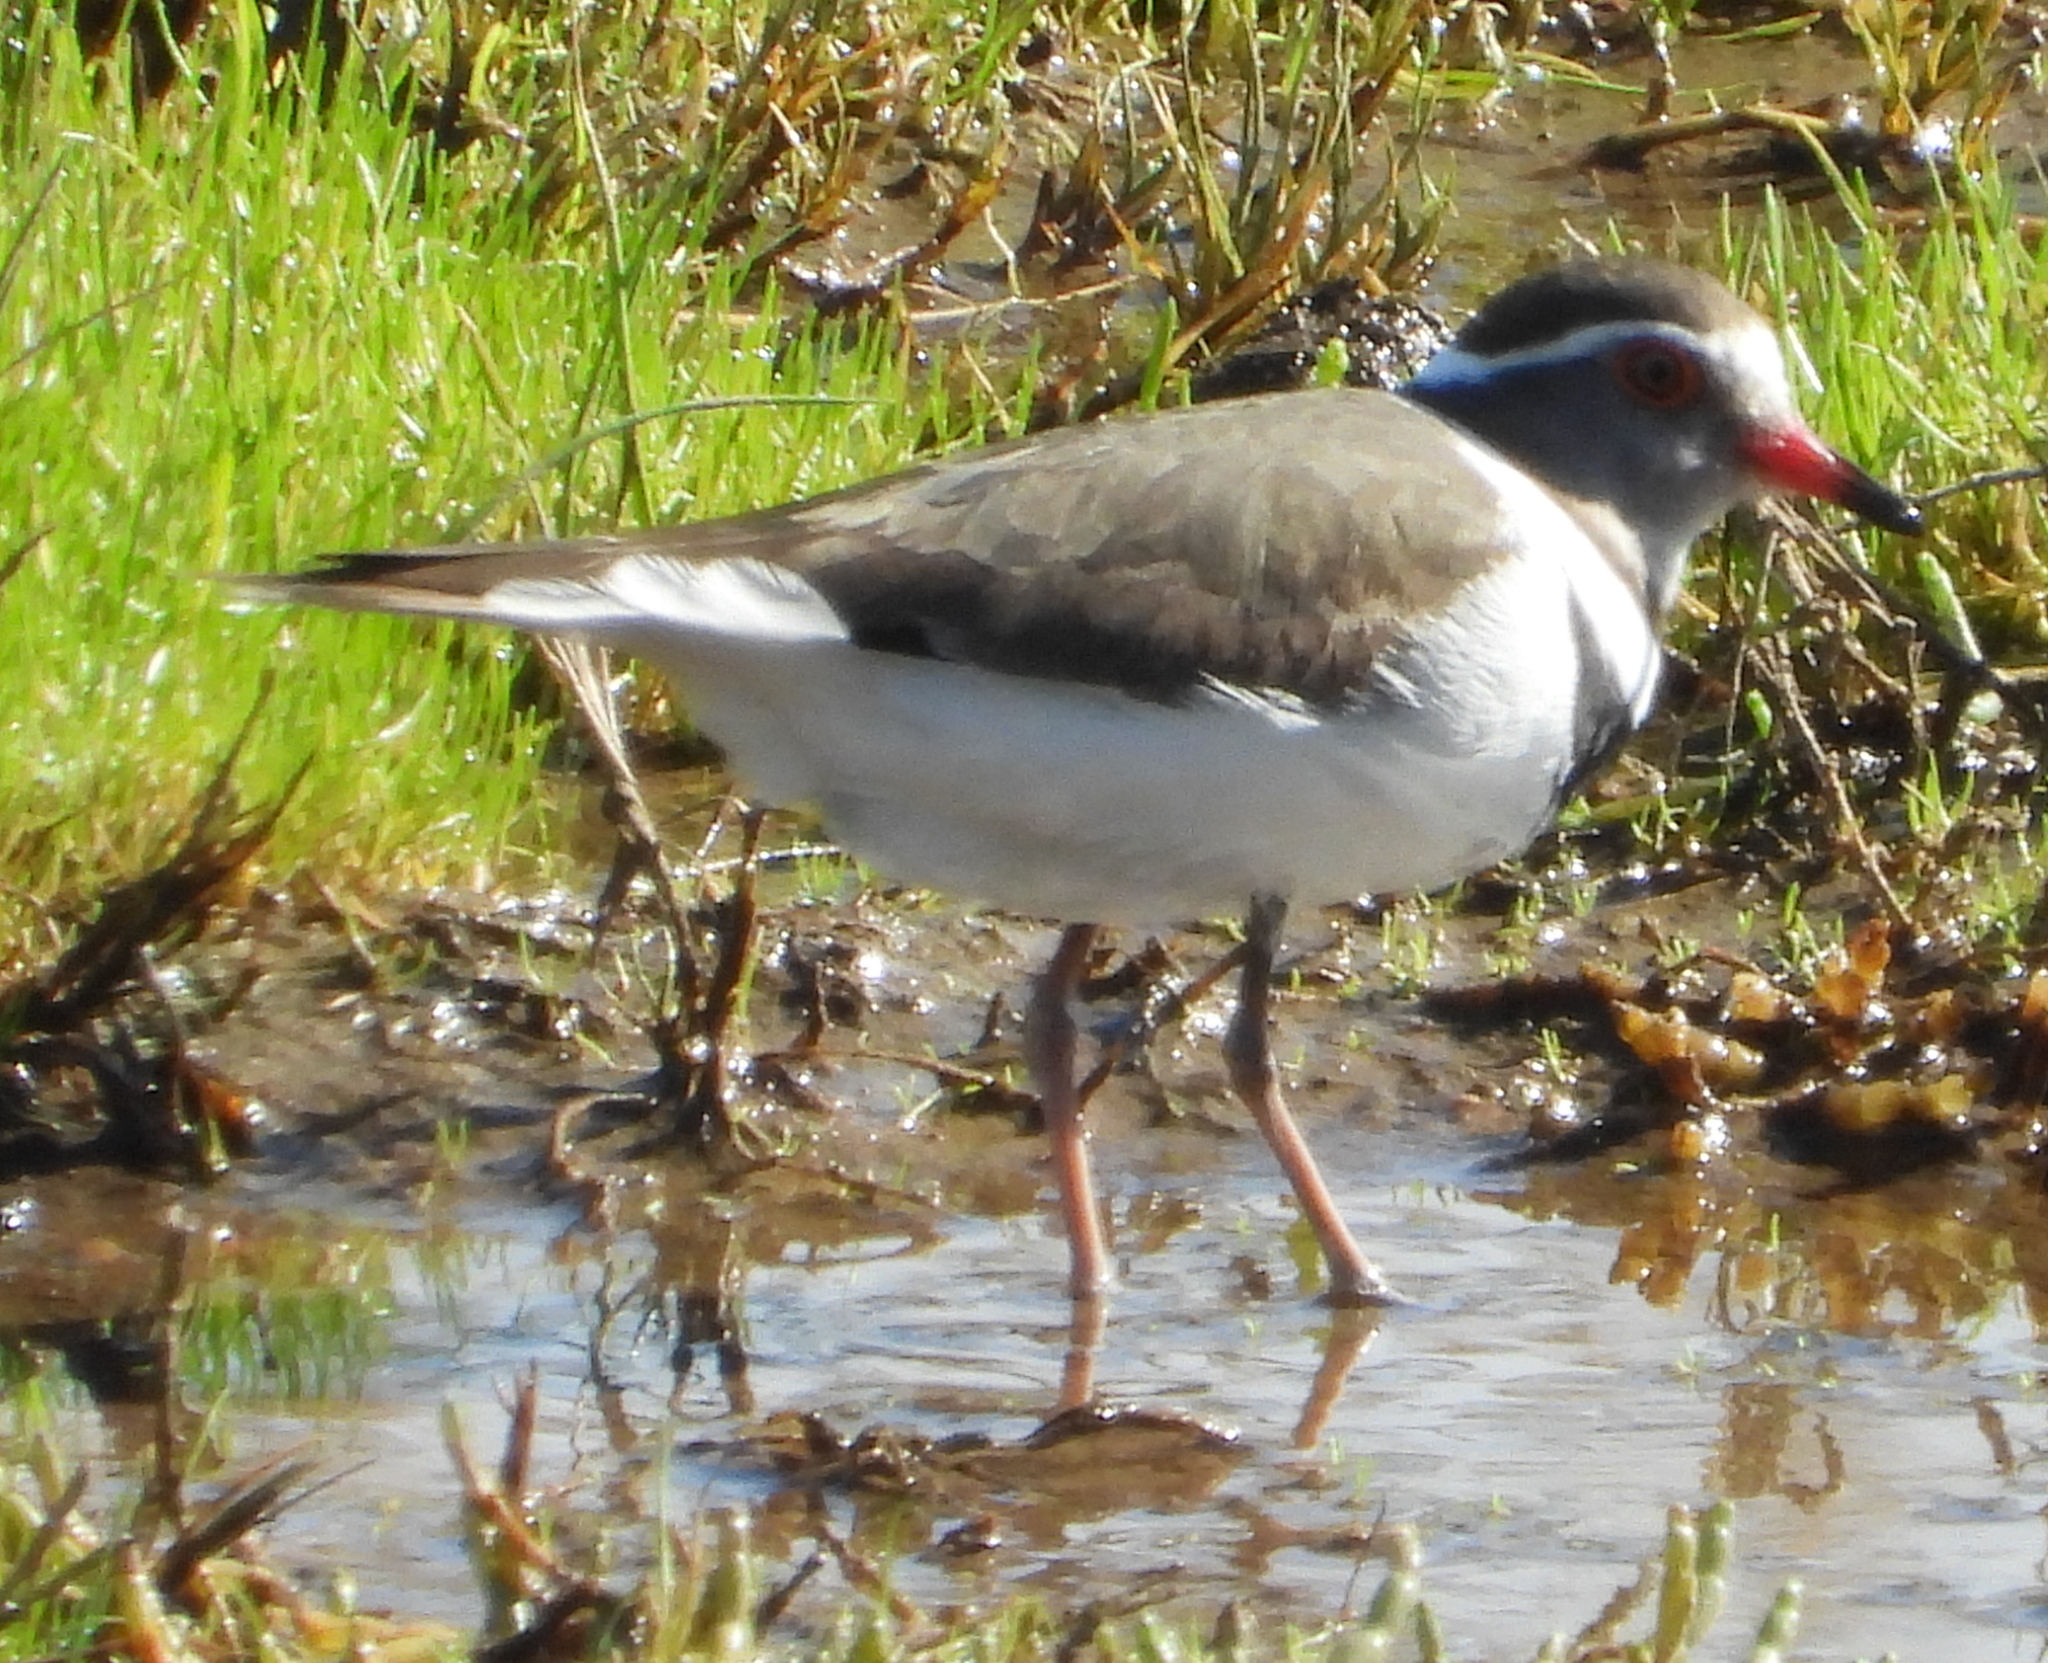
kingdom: Animalia
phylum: Chordata
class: Aves
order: Charadriiformes
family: Charadriidae
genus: Charadrius
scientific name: Charadrius tricollaris
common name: Three-banded plover
